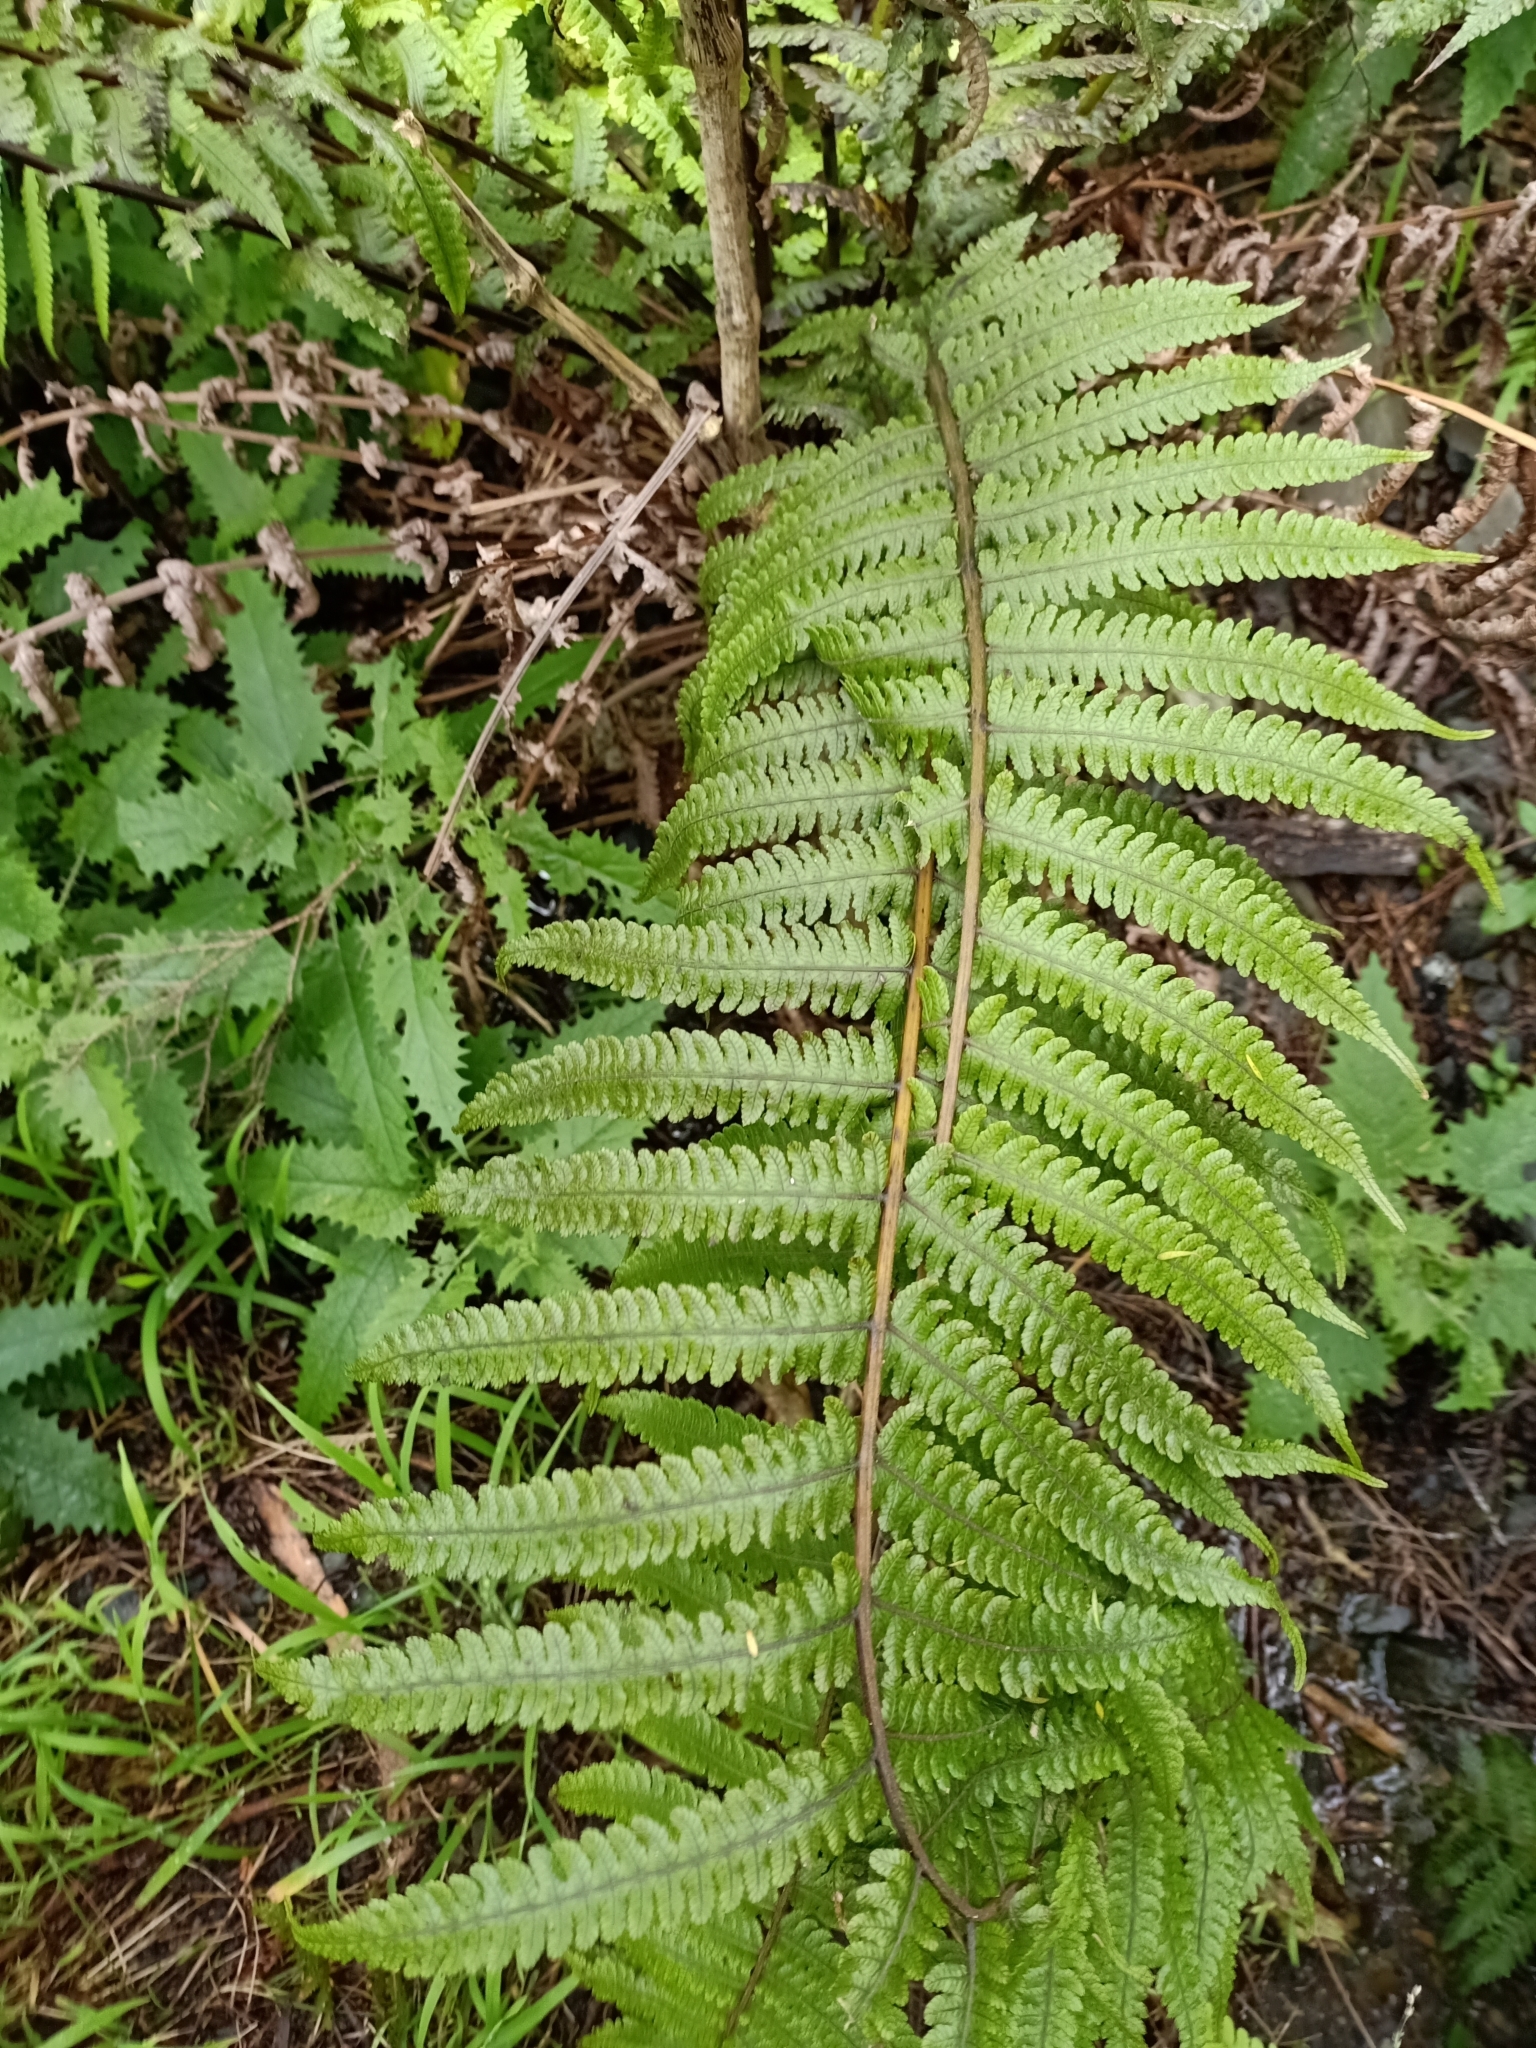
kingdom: Plantae
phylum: Tracheophyta
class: Polypodiopsida
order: Polypodiales
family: Thelypteridaceae
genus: Pakau
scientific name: Pakau pennigera
